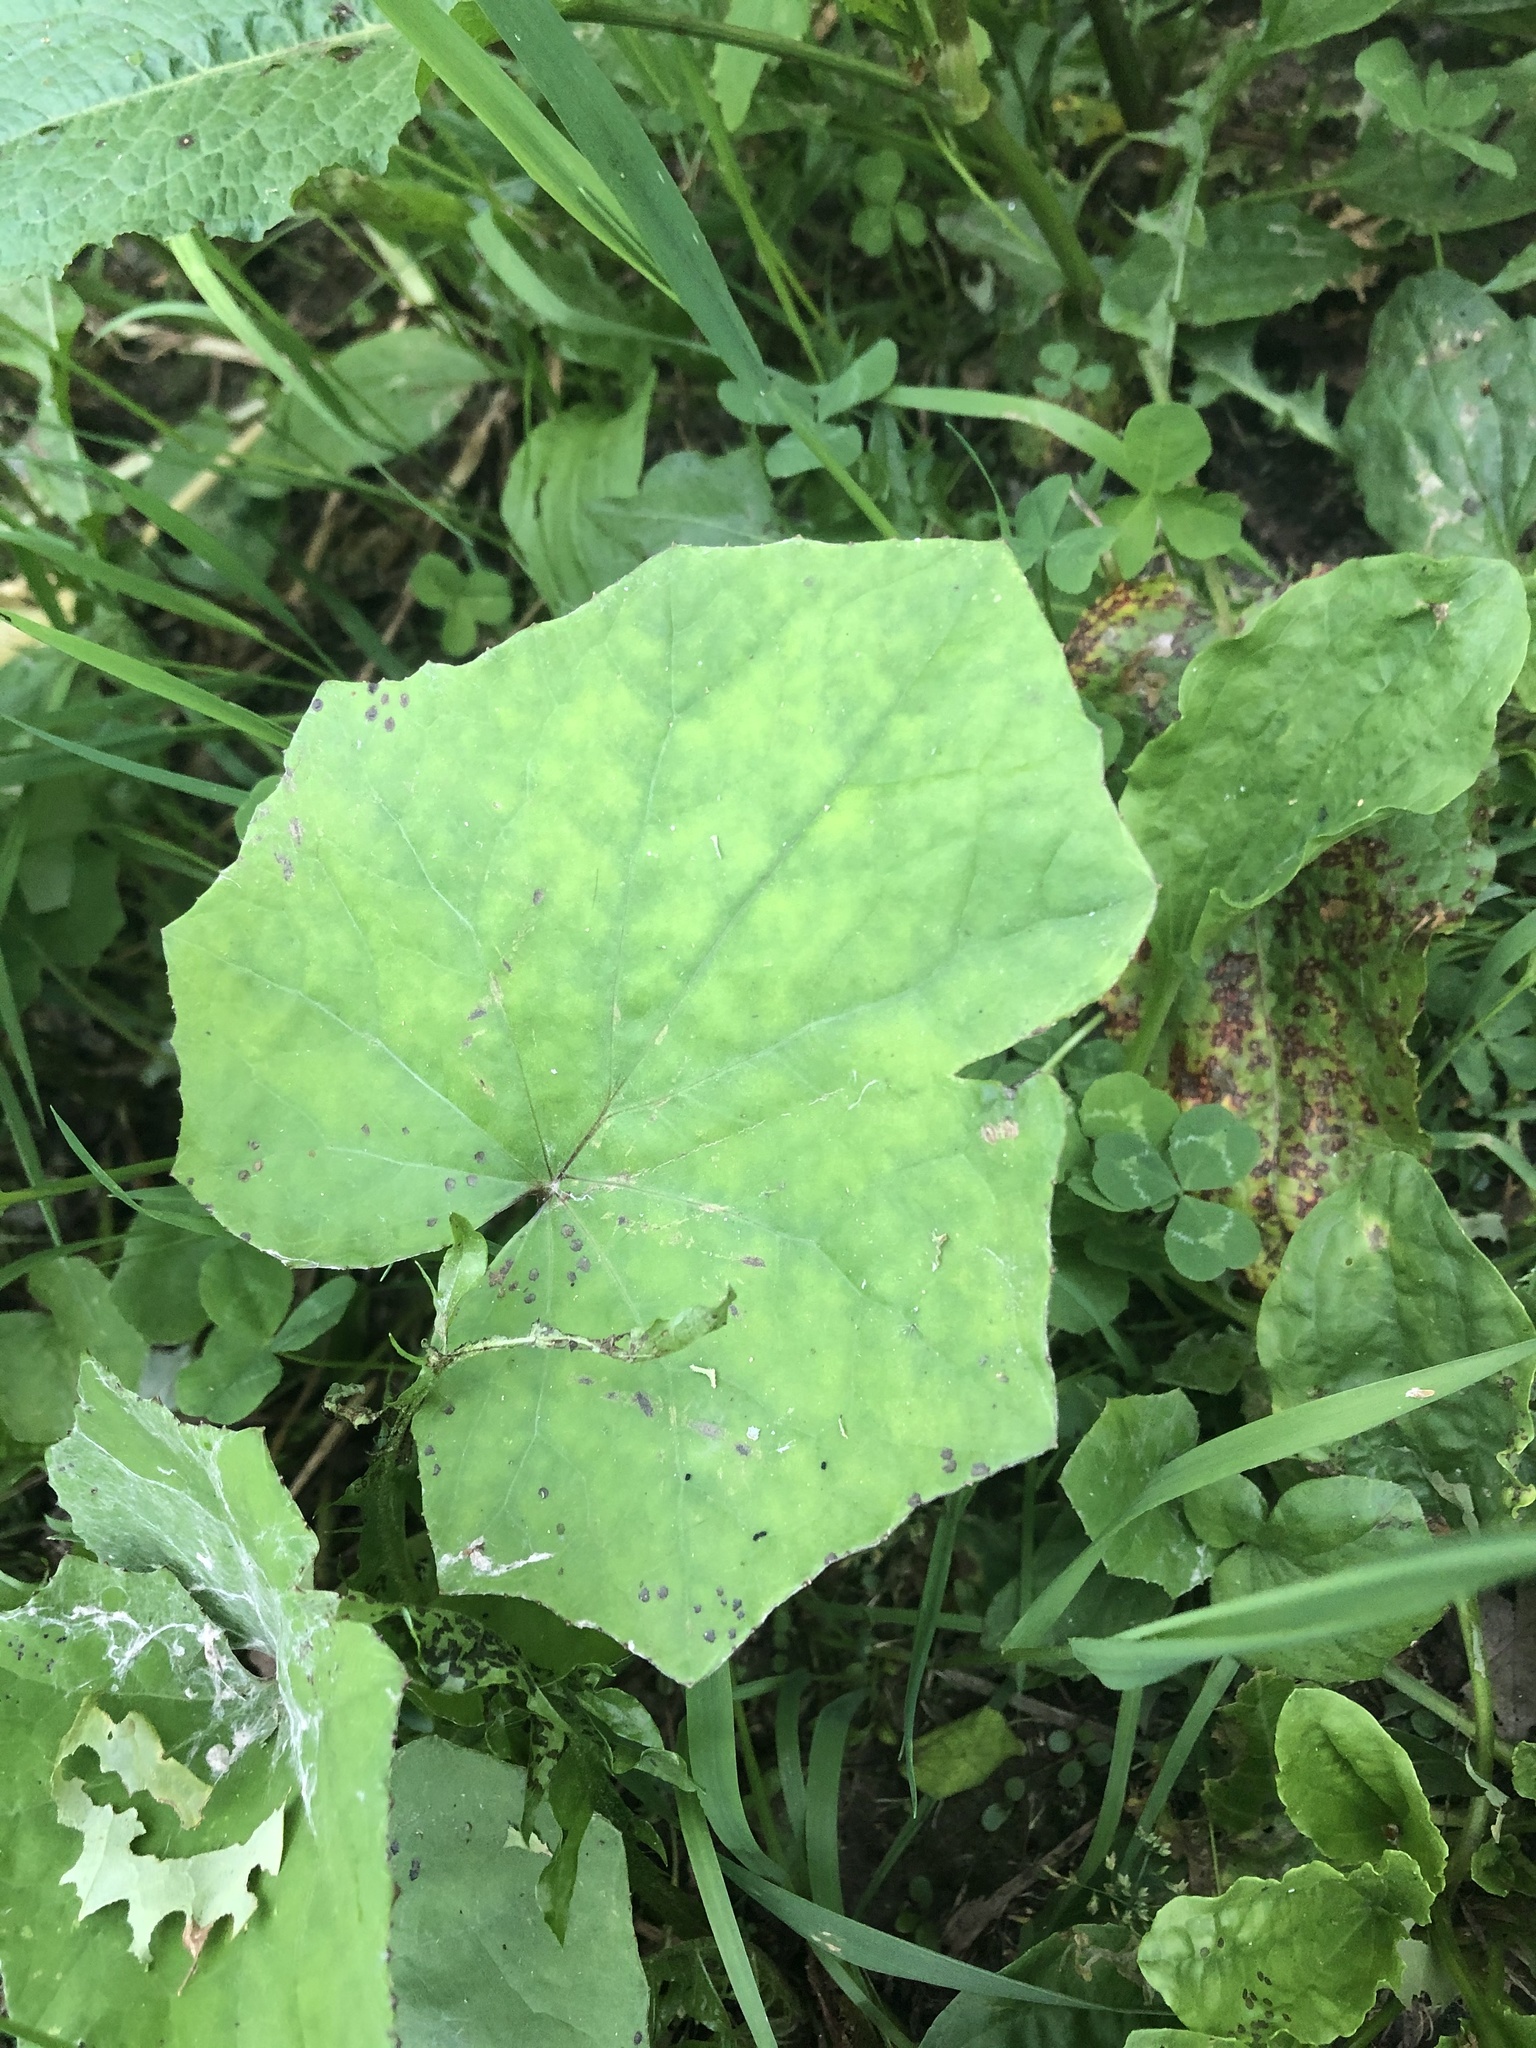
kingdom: Plantae
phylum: Tracheophyta
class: Magnoliopsida
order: Asterales
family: Asteraceae
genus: Tussilago
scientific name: Tussilago farfara
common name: Coltsfoot
